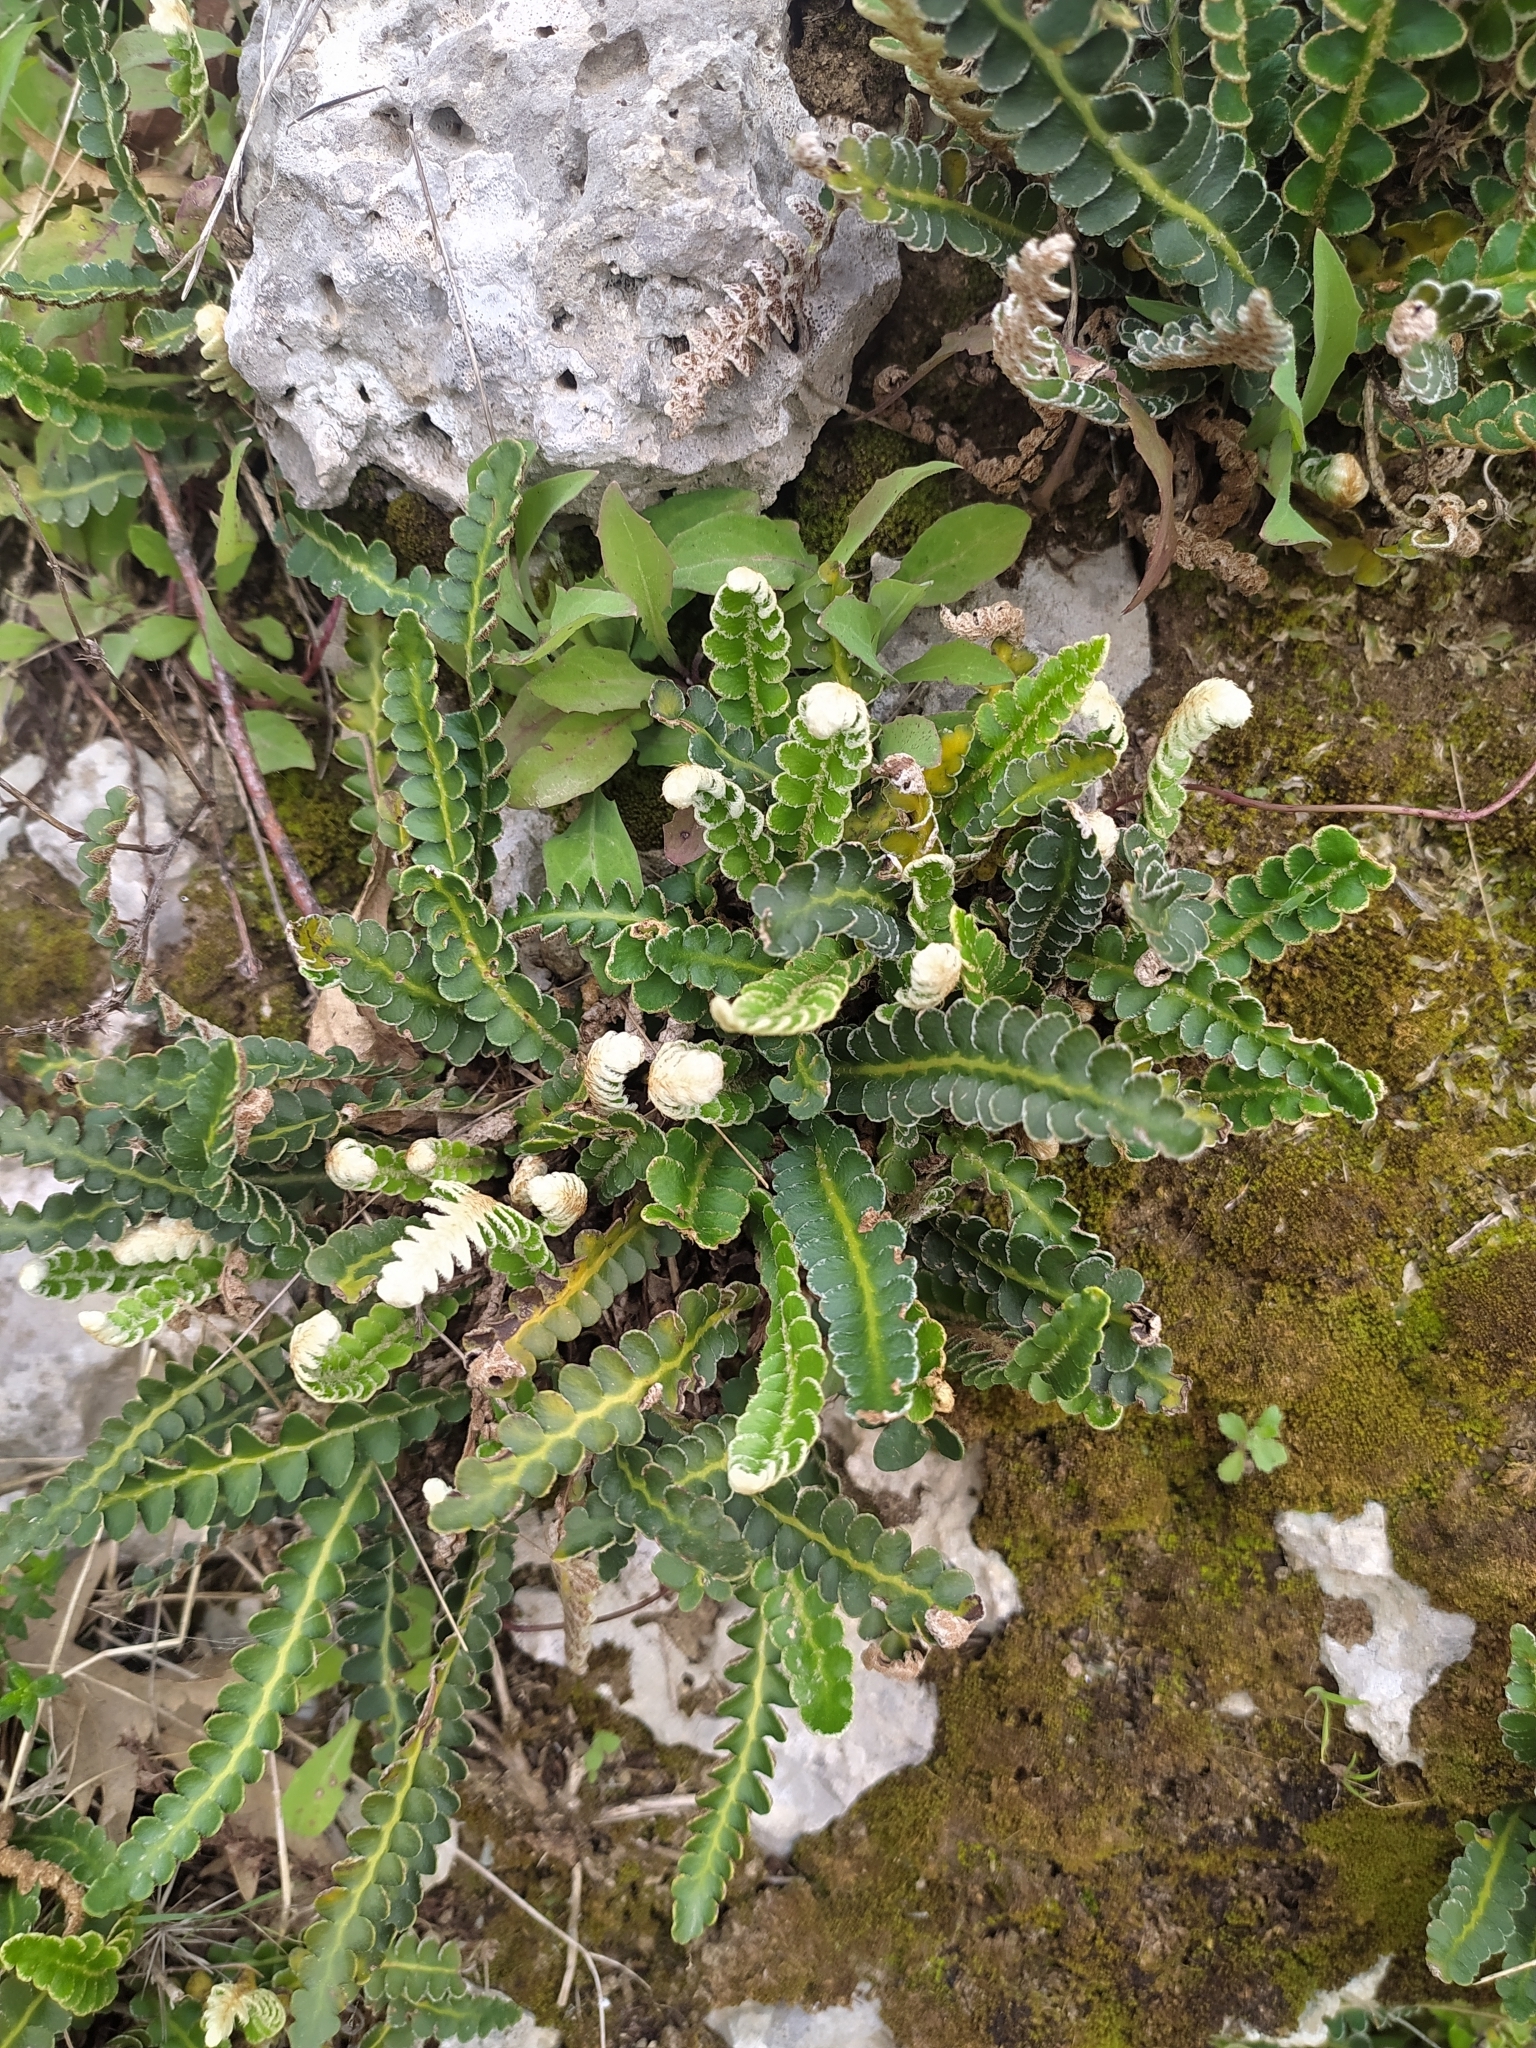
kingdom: Plantae
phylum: Tracheophyta
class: Polypodiopsida
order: Polypodiales
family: Aspleniaceae
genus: Asplenium
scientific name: Asplenium ceterach
